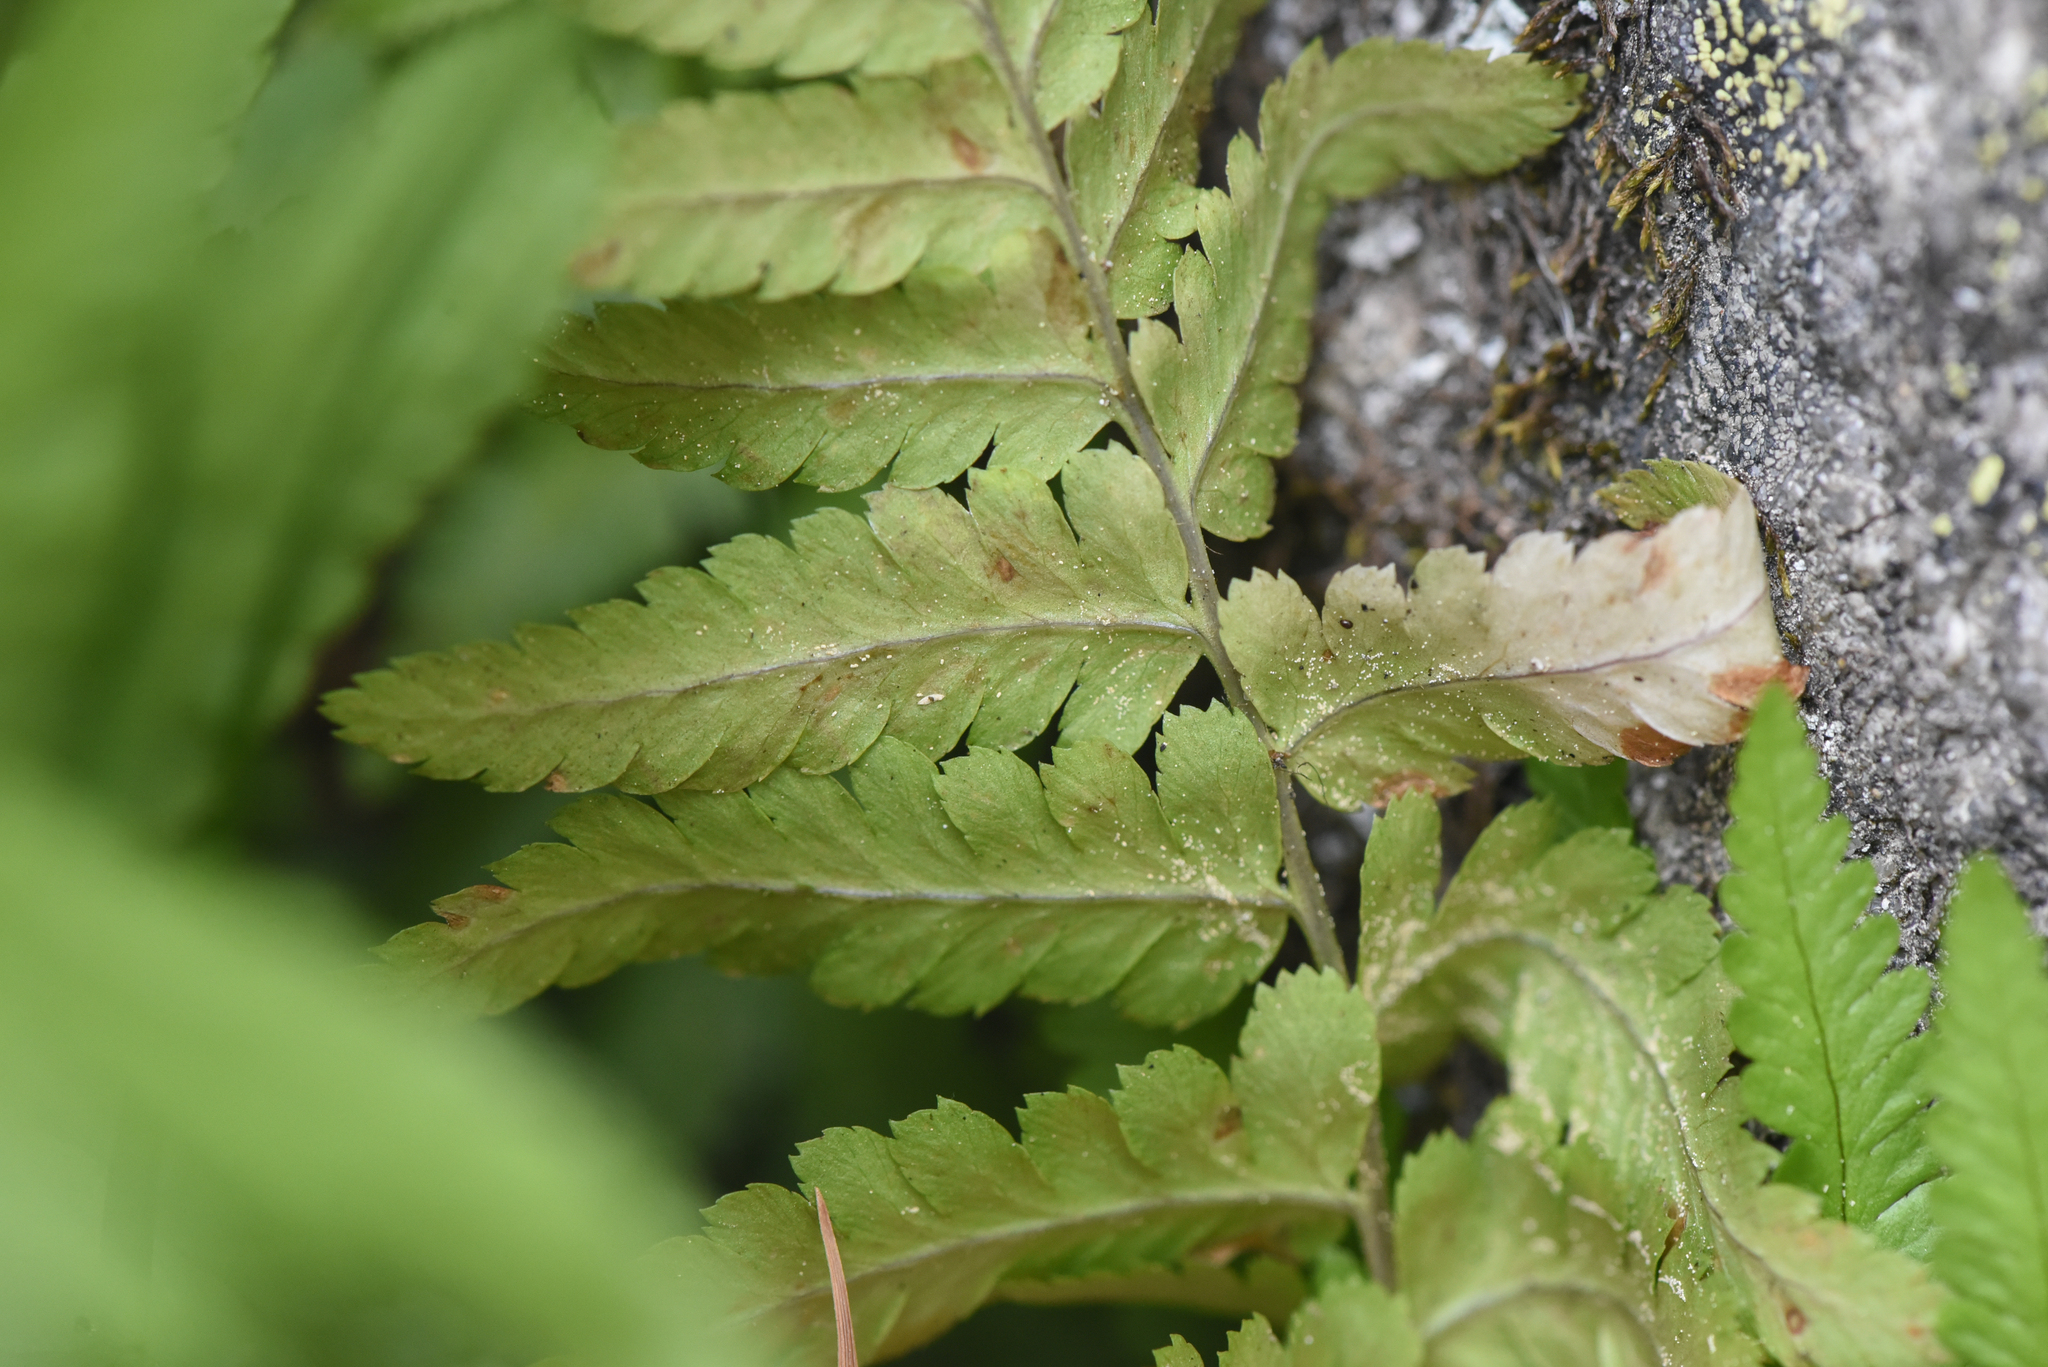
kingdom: Plantae
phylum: Tracheophyta
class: Polypodiopsida
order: Polypodiales
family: Dryopteridaceae
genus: Dryopteris
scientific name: Dryopteris filix-mas
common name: Male fern
